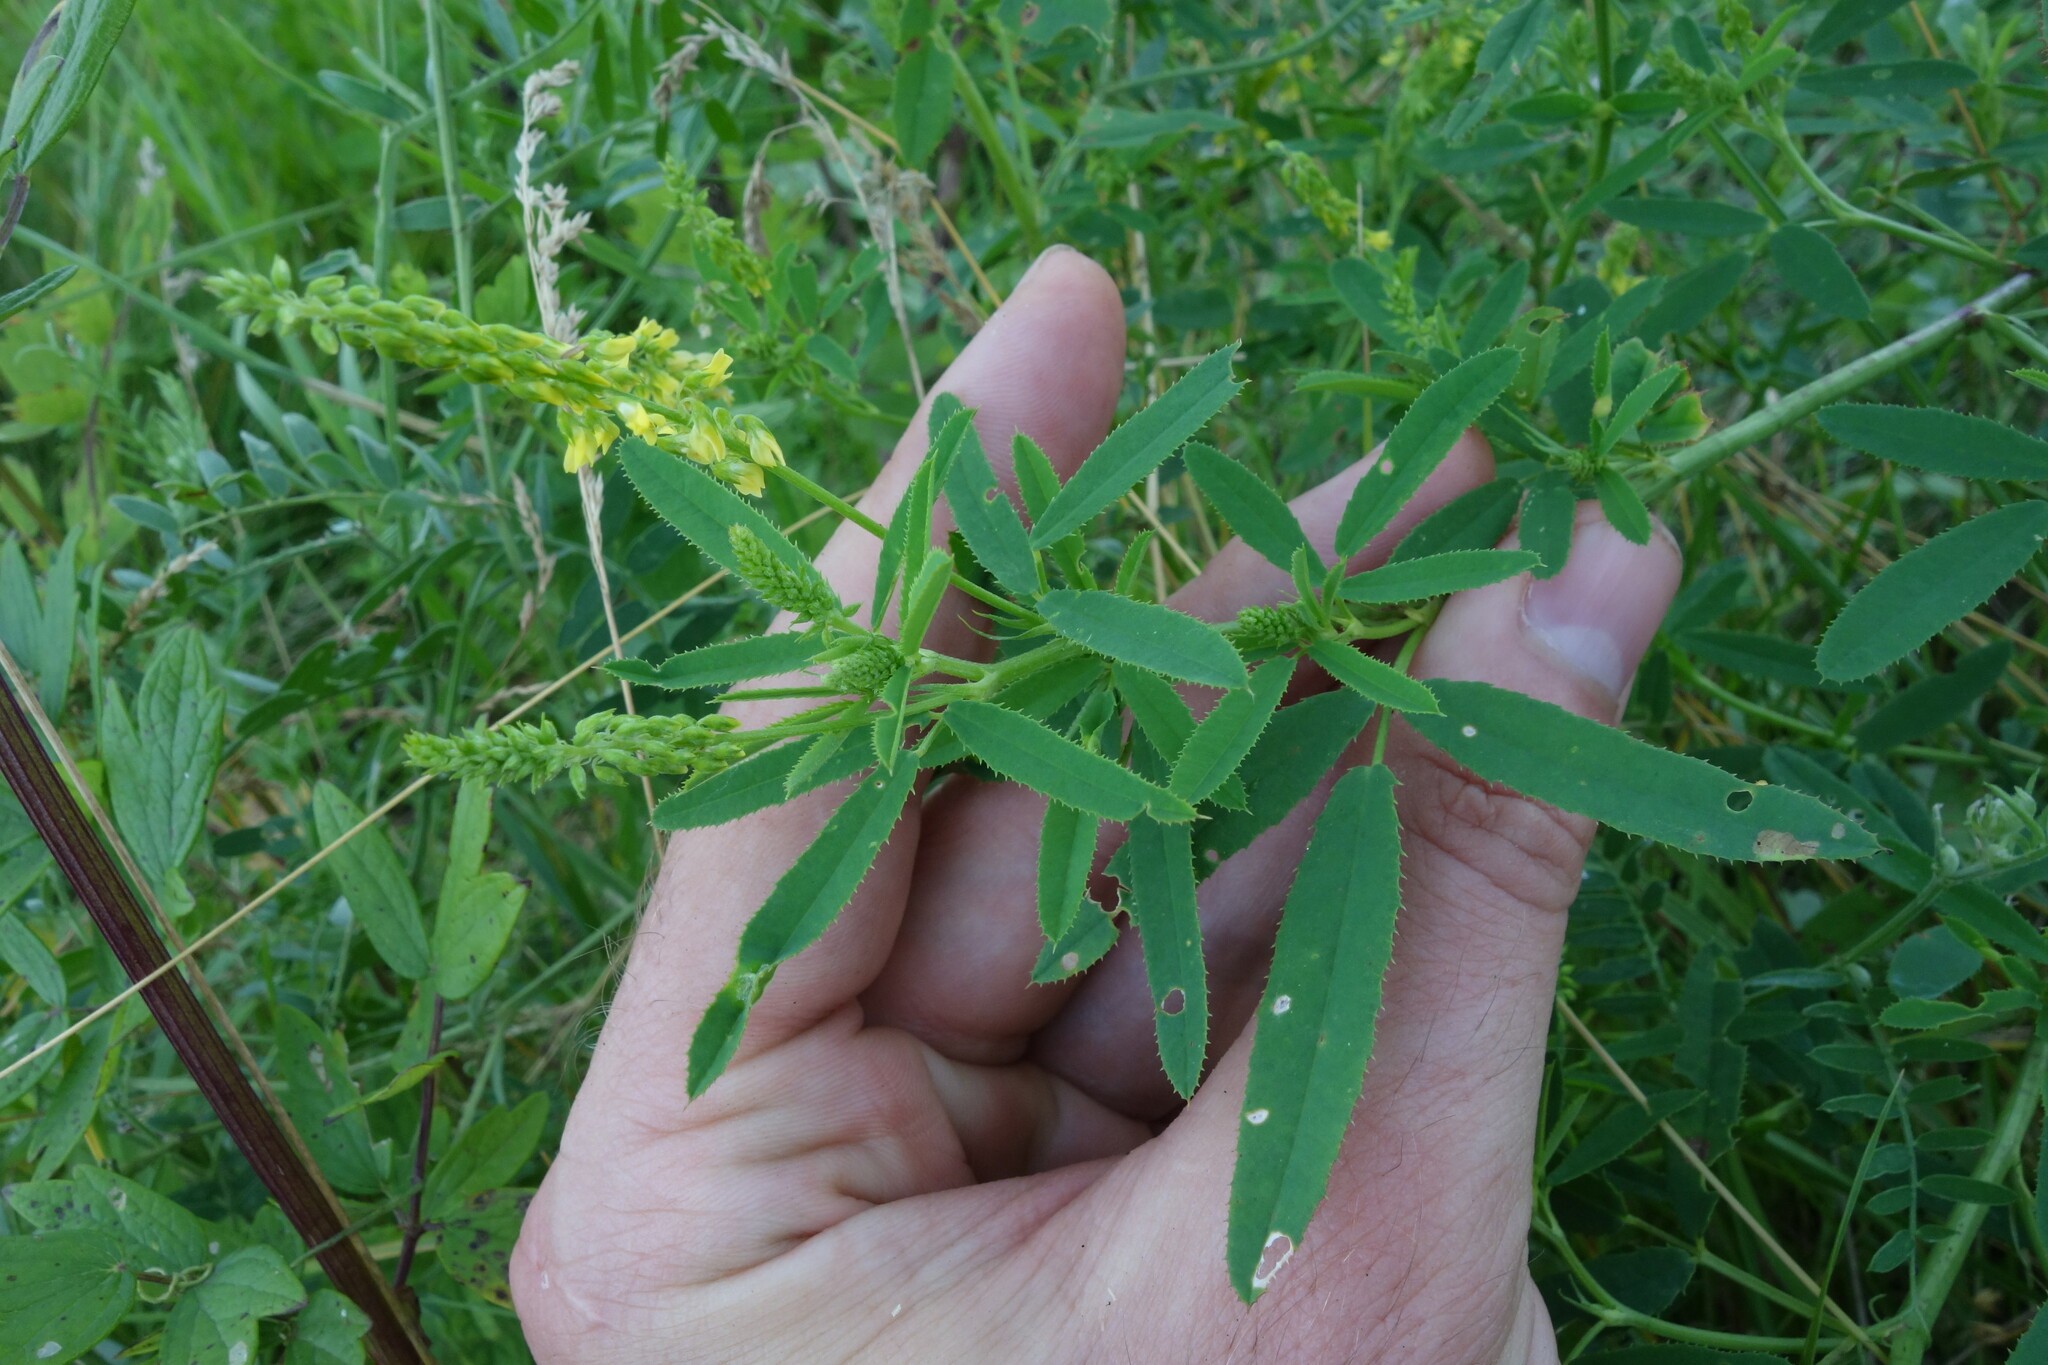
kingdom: Plantae
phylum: Tracheophyta
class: Magnoliopsida
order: Fabales
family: Fabaceae
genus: Melilotus
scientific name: Melilotus dentatus
